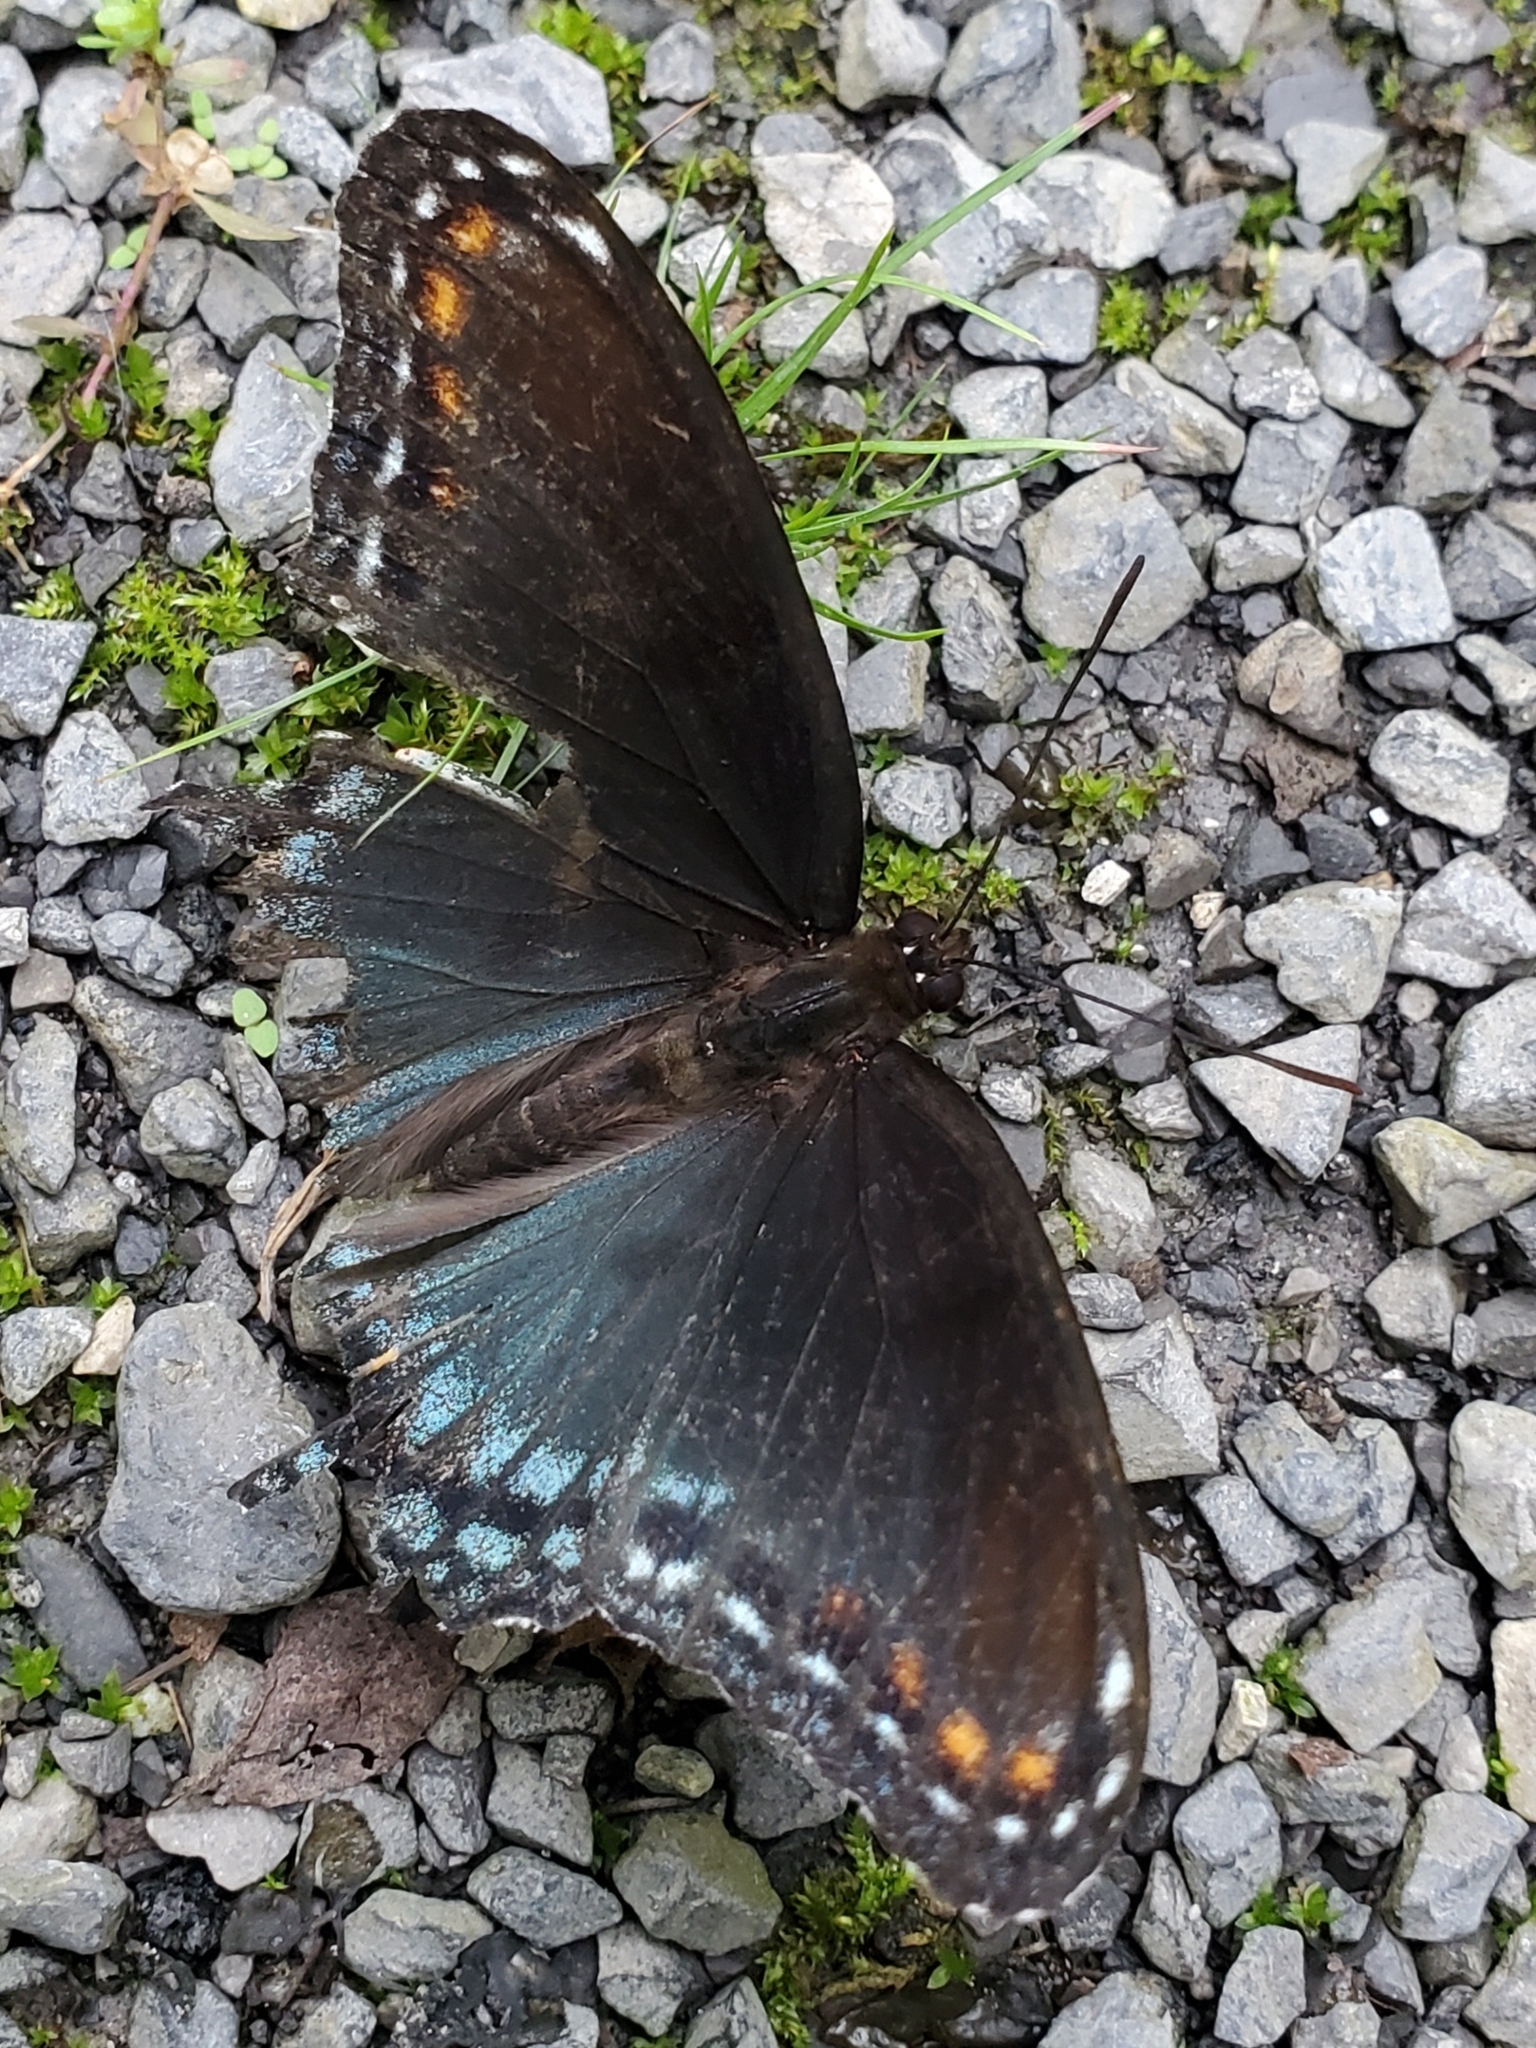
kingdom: Animalia
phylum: Arthropoda
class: Insecta
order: Lepidoptera
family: Nymphalidae
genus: Limenitis
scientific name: Limenitis astyanax
